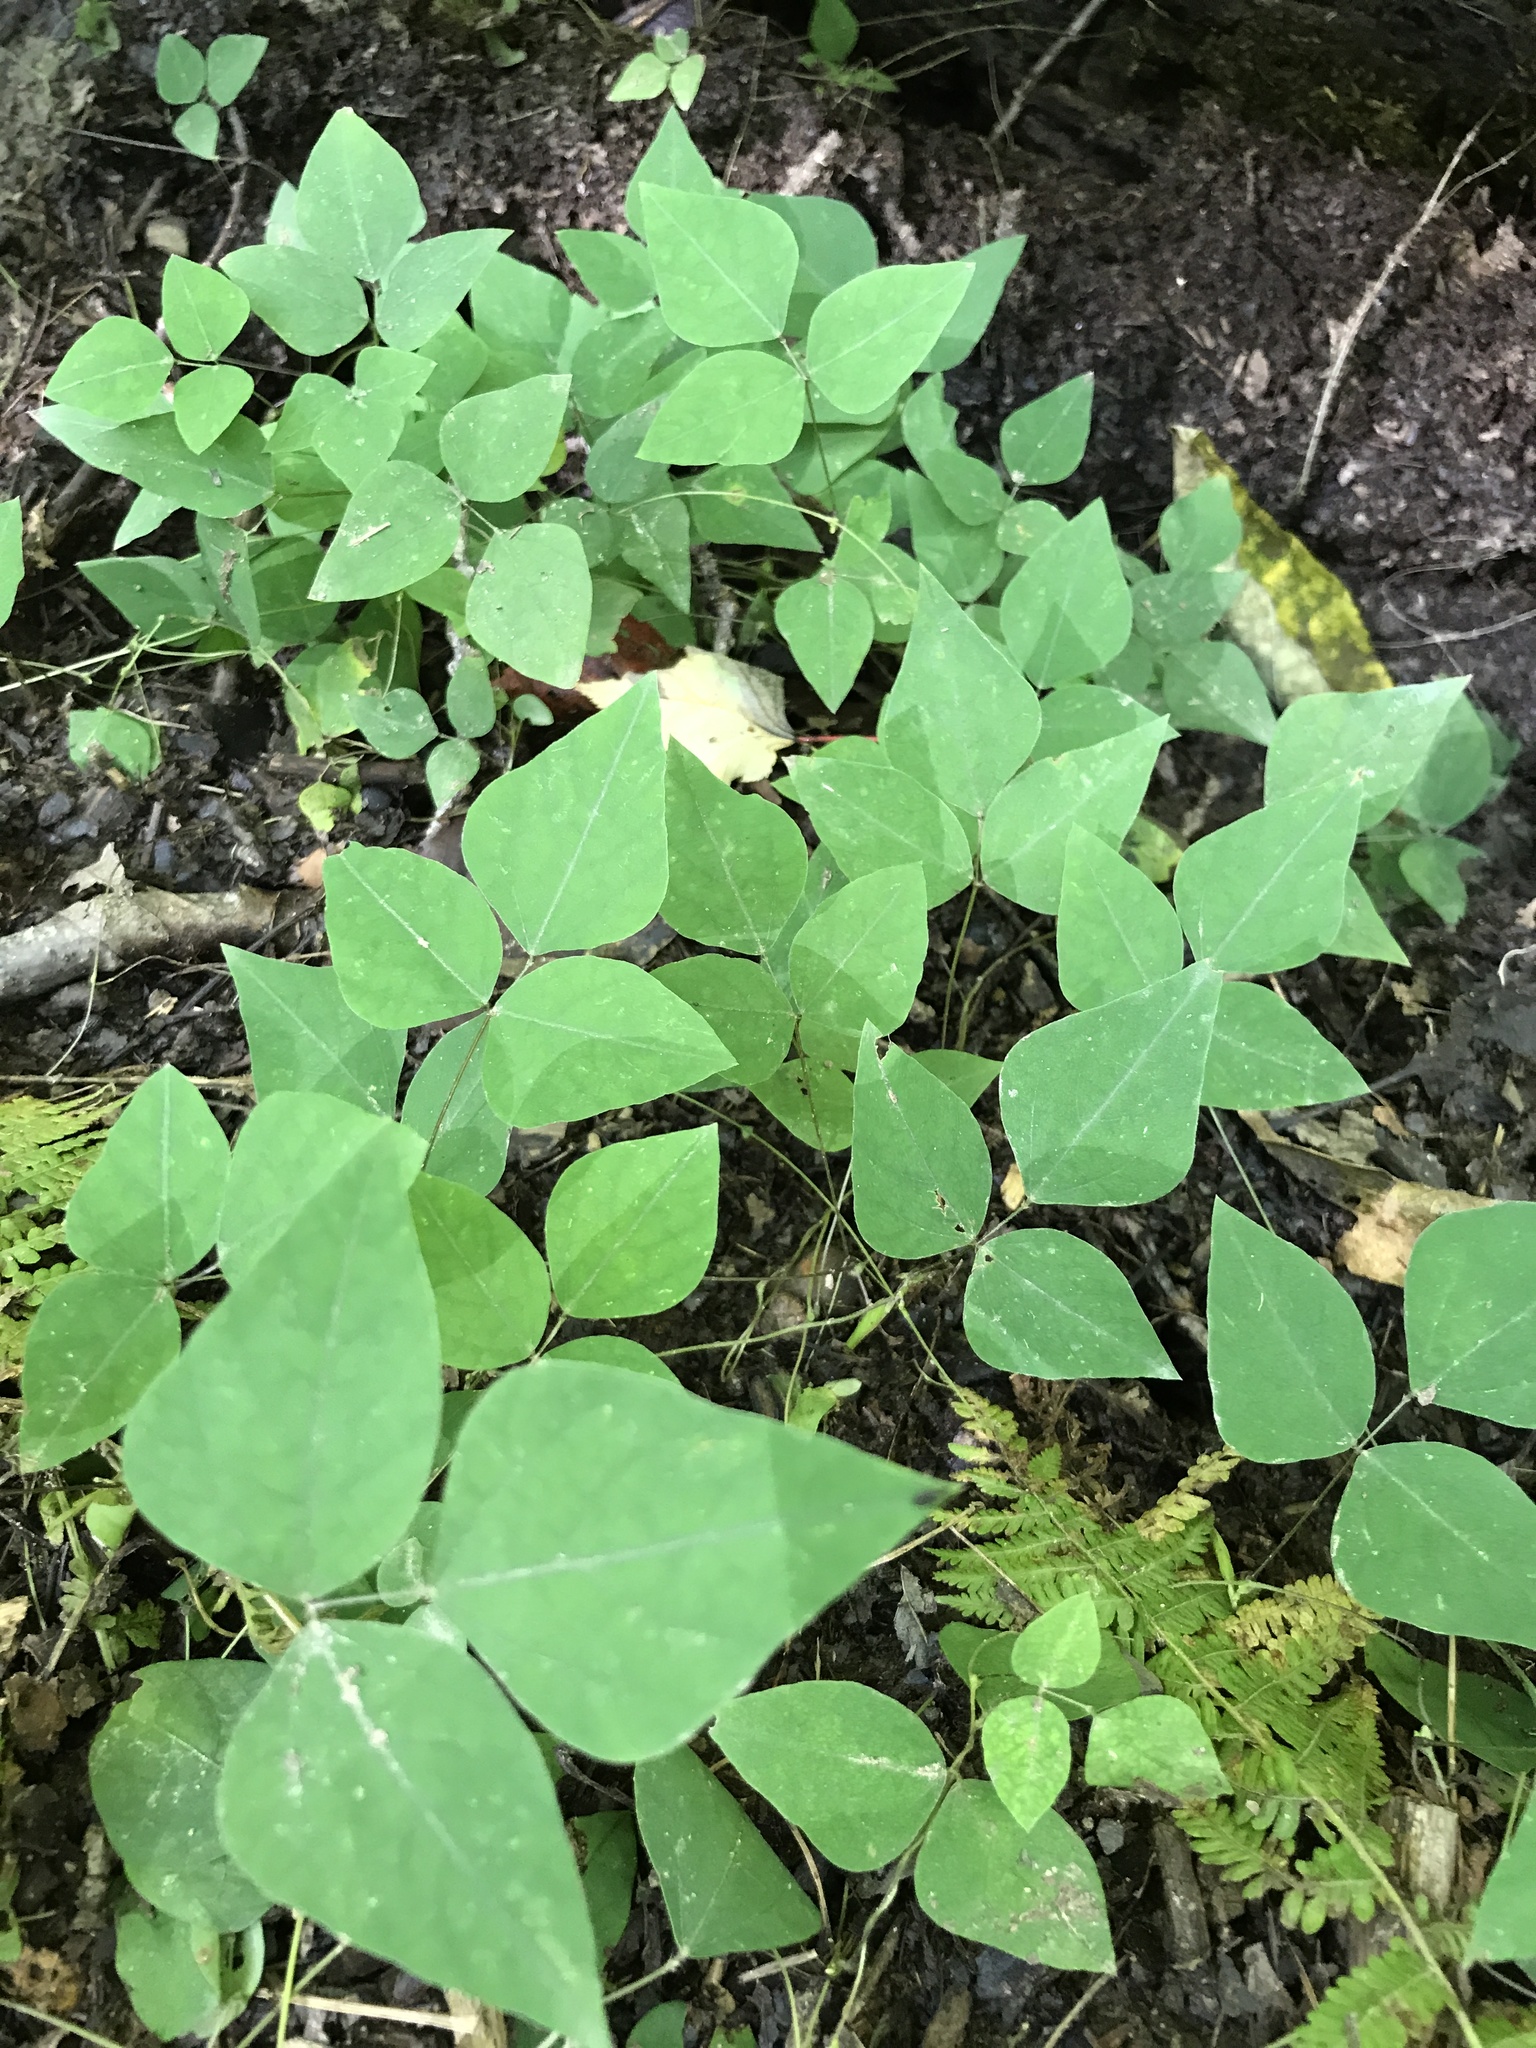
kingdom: Plantae
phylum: Tracheophyta
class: Magnoliopsida
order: Fabales
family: Fabaceae
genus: Amphicarpaea
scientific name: Amphicarpaea bracteata
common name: American hog peanut
